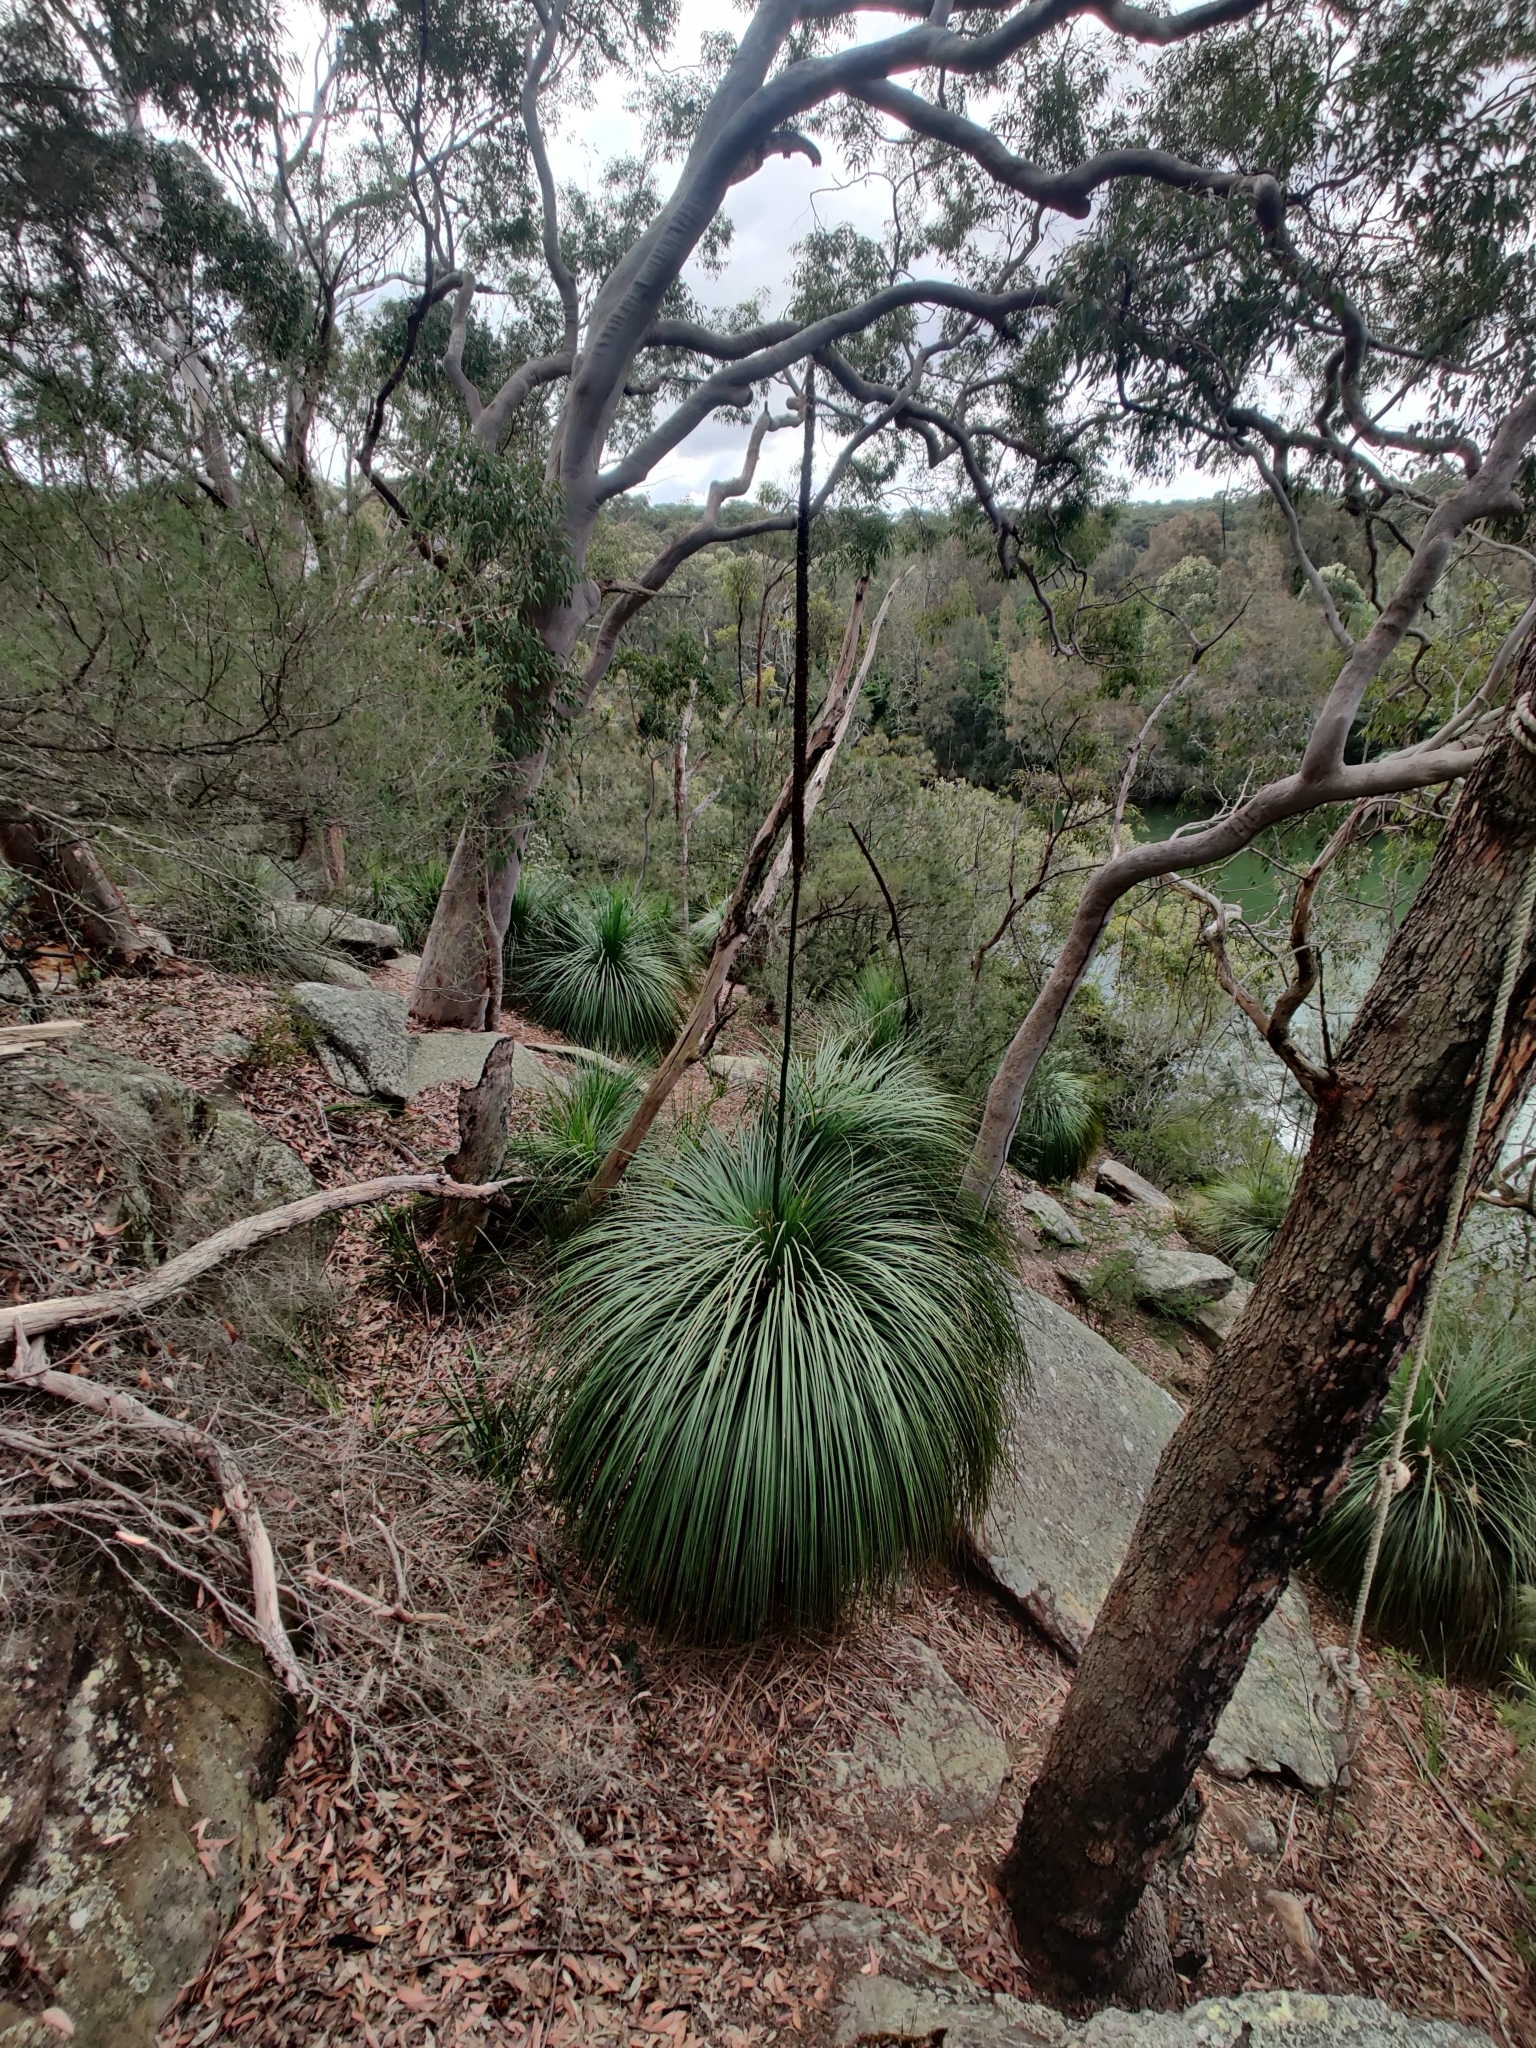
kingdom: Plantae
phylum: Tracheophyta
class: Liliopsida
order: Asparagales
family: Asphodelaceae
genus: Xanthorrhoea
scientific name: Xanthorrhoea arborea
